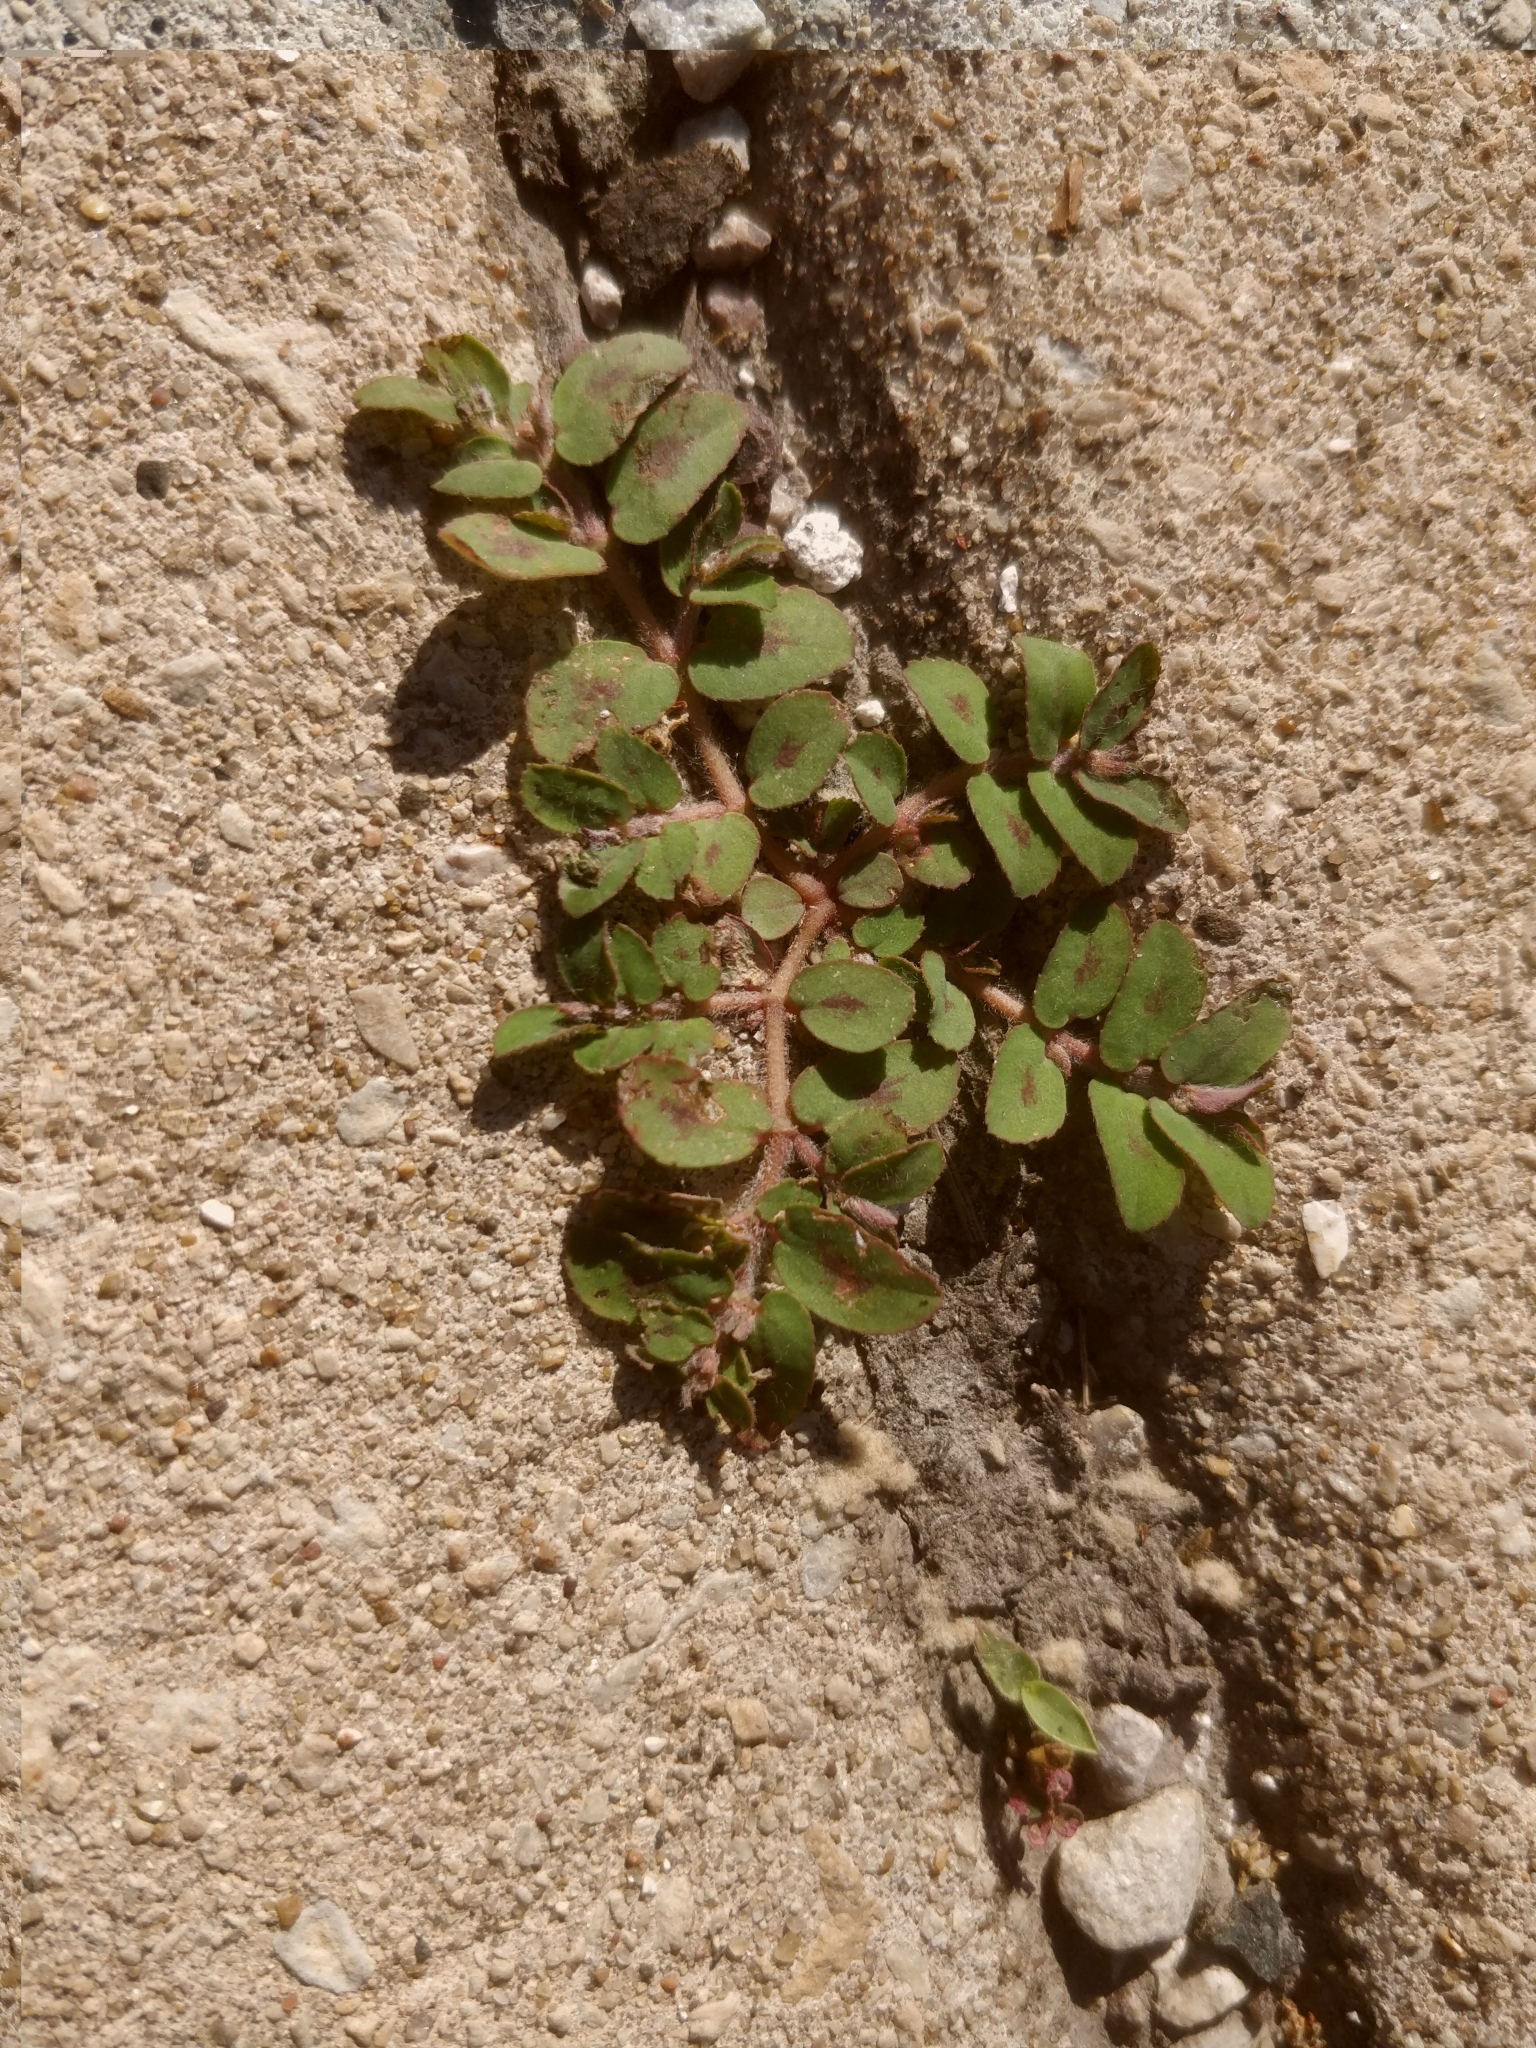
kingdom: Plantae
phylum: Tracheophyta
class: Magnoliopsida
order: Malpighiales
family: Euphorbiaceae
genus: Euphorbia
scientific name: Euphorbia maculata
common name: Spotted spurge
